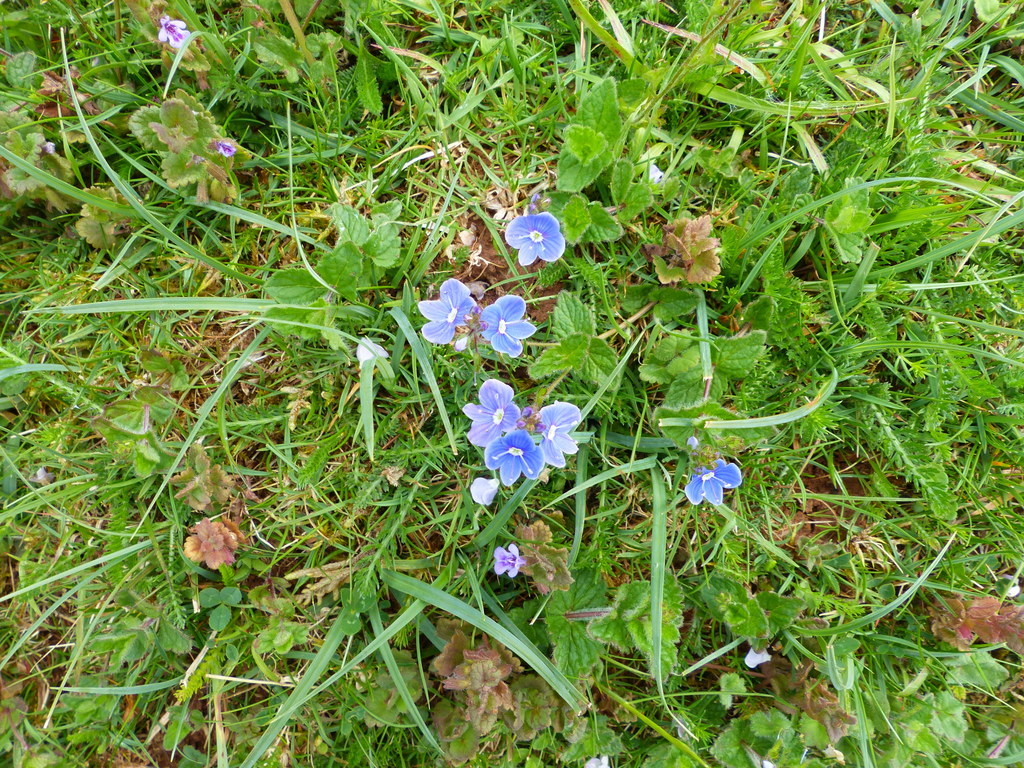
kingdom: Plantae
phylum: Tracheophyta
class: Magnoliopsida
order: Lamiales
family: Plantaginaceae
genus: Veronica
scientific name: Veronica chamaedrys
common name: Germander speedwell
